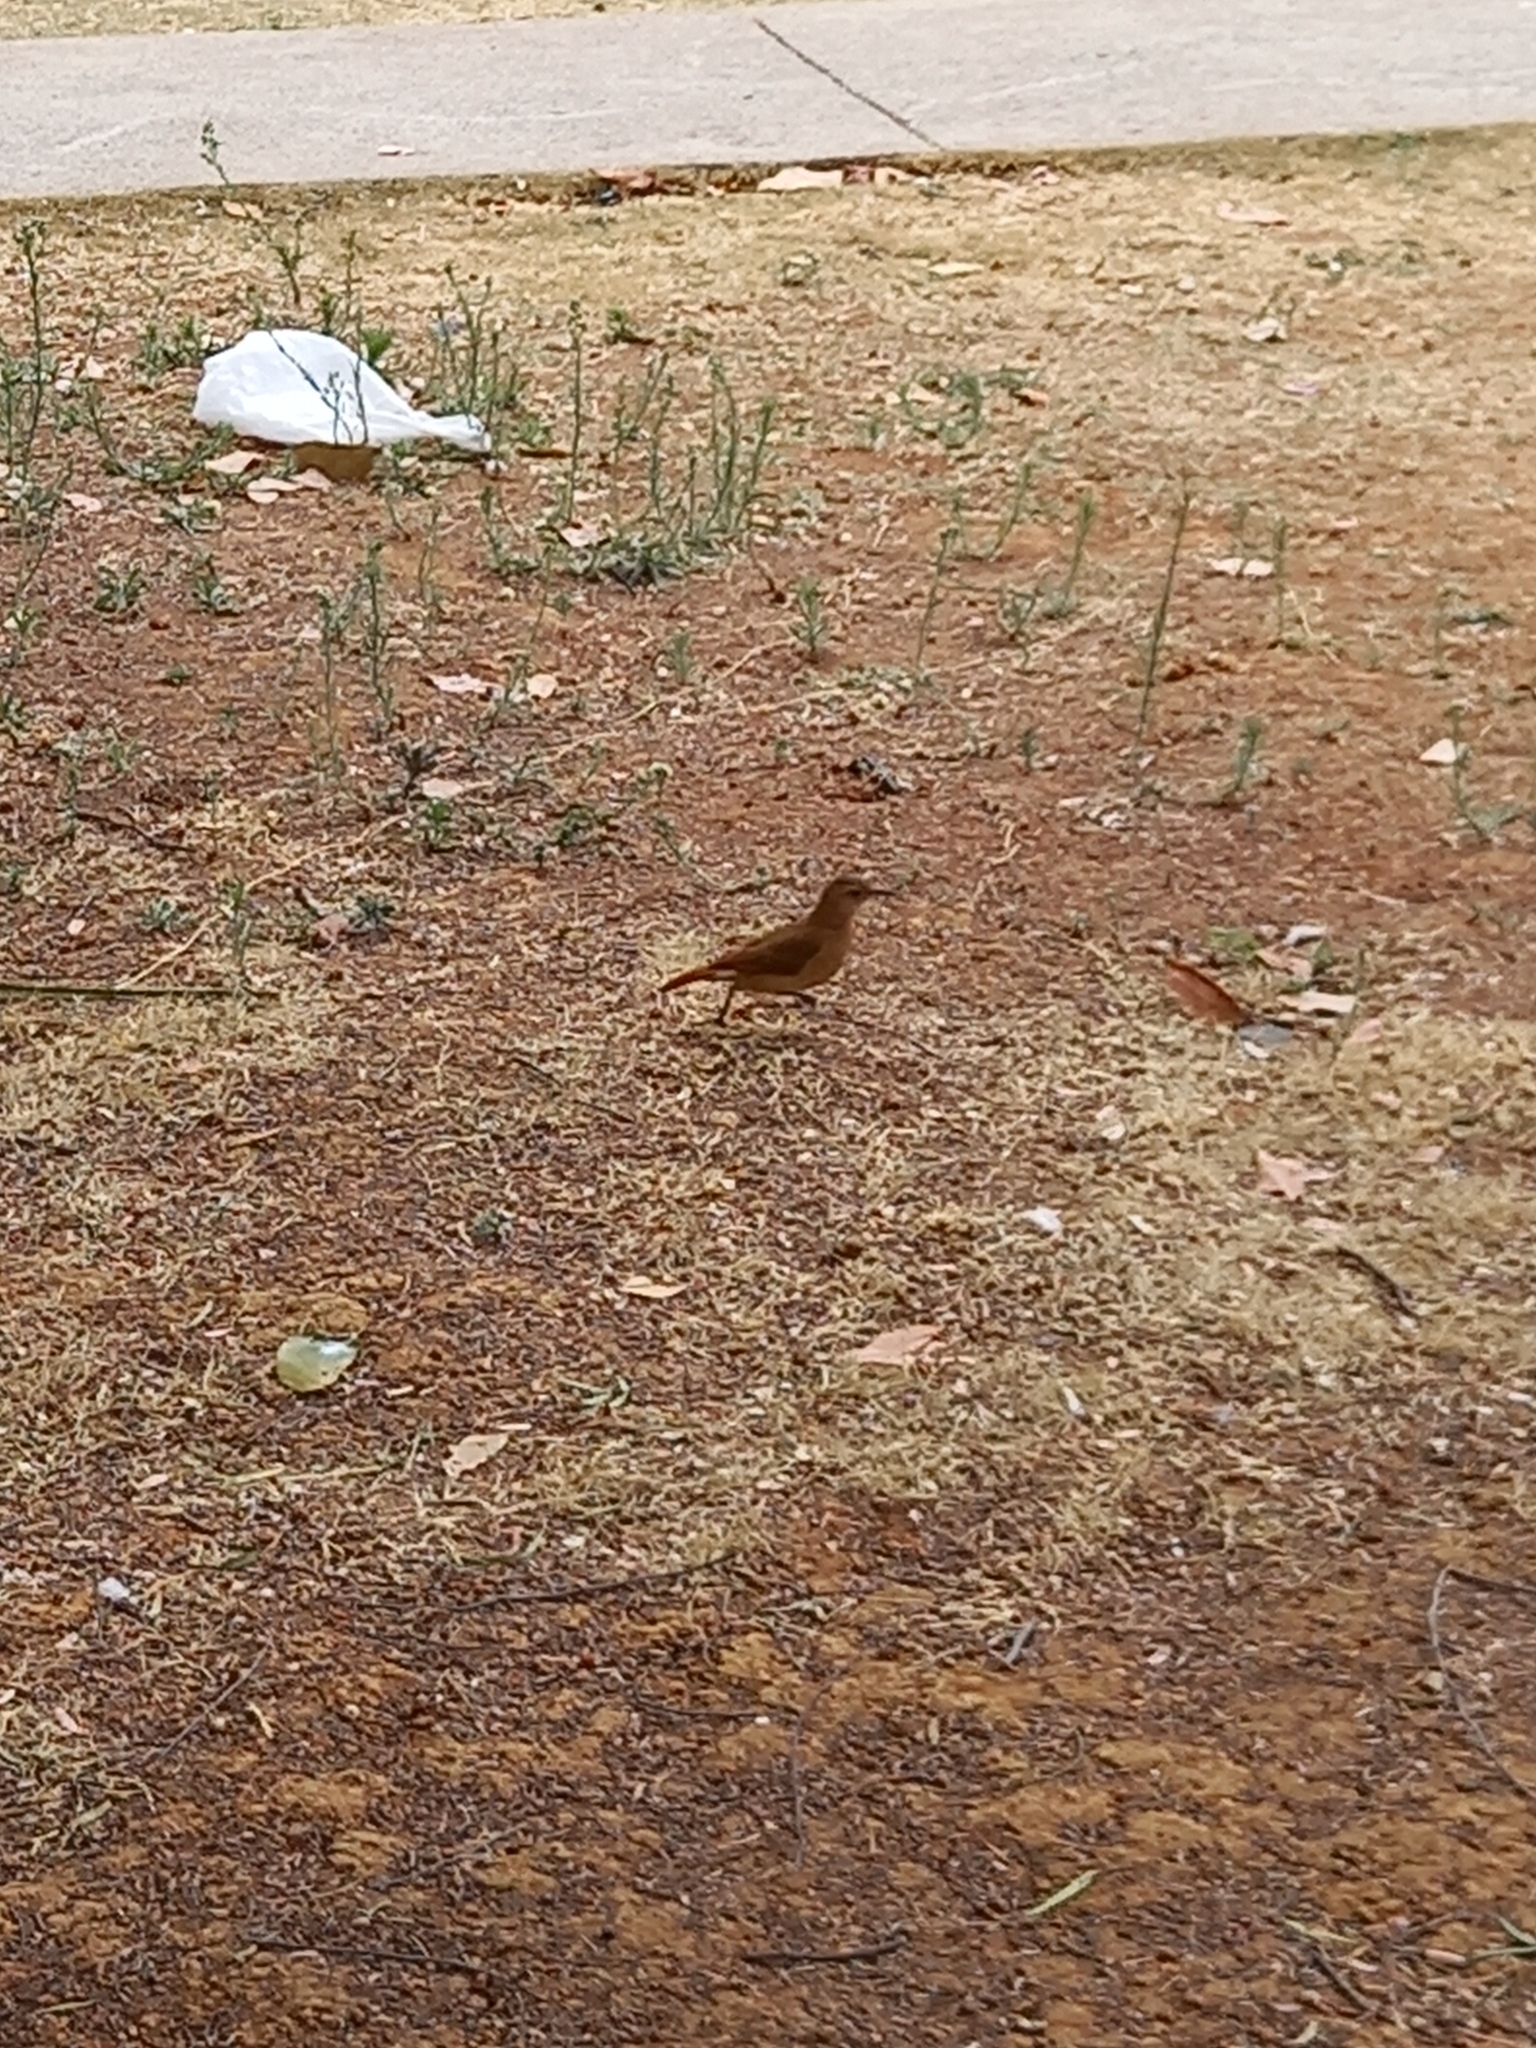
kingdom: Animalia
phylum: Chordata
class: Aves
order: Passeriformes
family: Furnariidae
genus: Furnarius
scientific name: Furnarius rufus
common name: Rufous hornero
